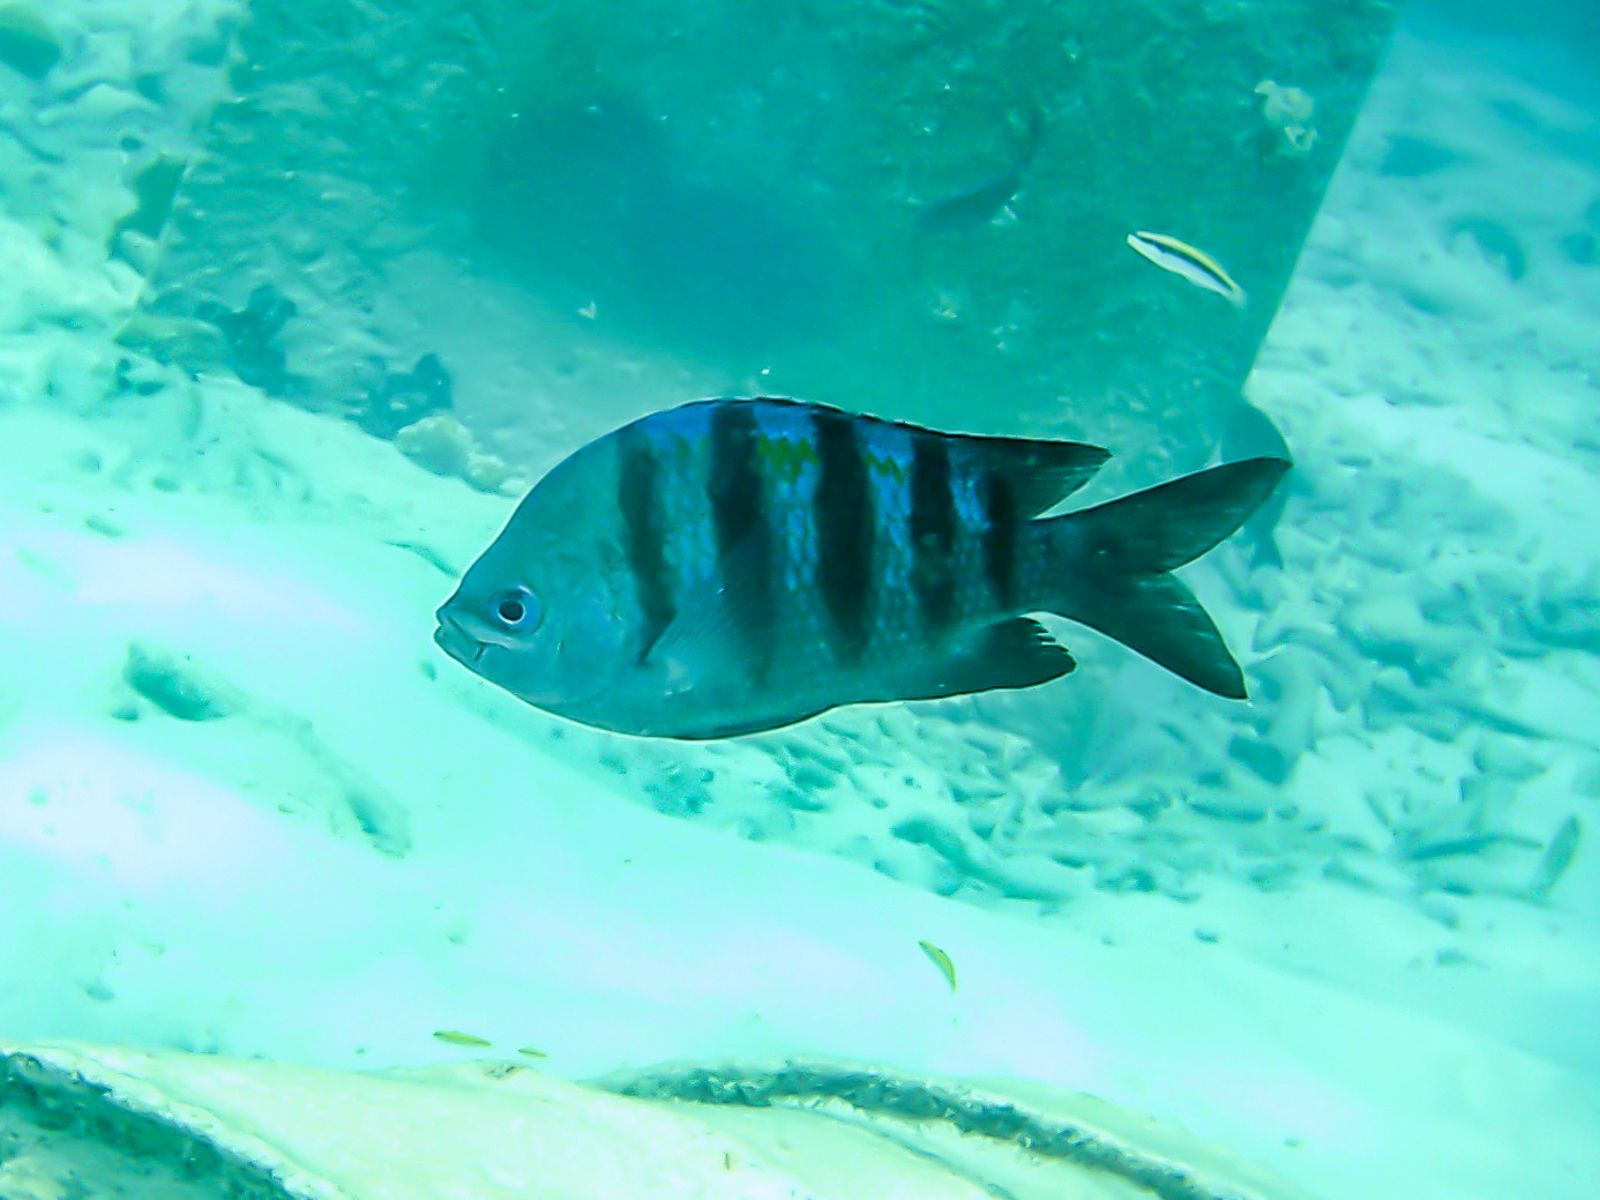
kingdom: Animalia
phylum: Chordata
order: Perciformes
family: Pomacentridae
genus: Abudefduf
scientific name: Abudefduf saxatilis
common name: Sergeant major
